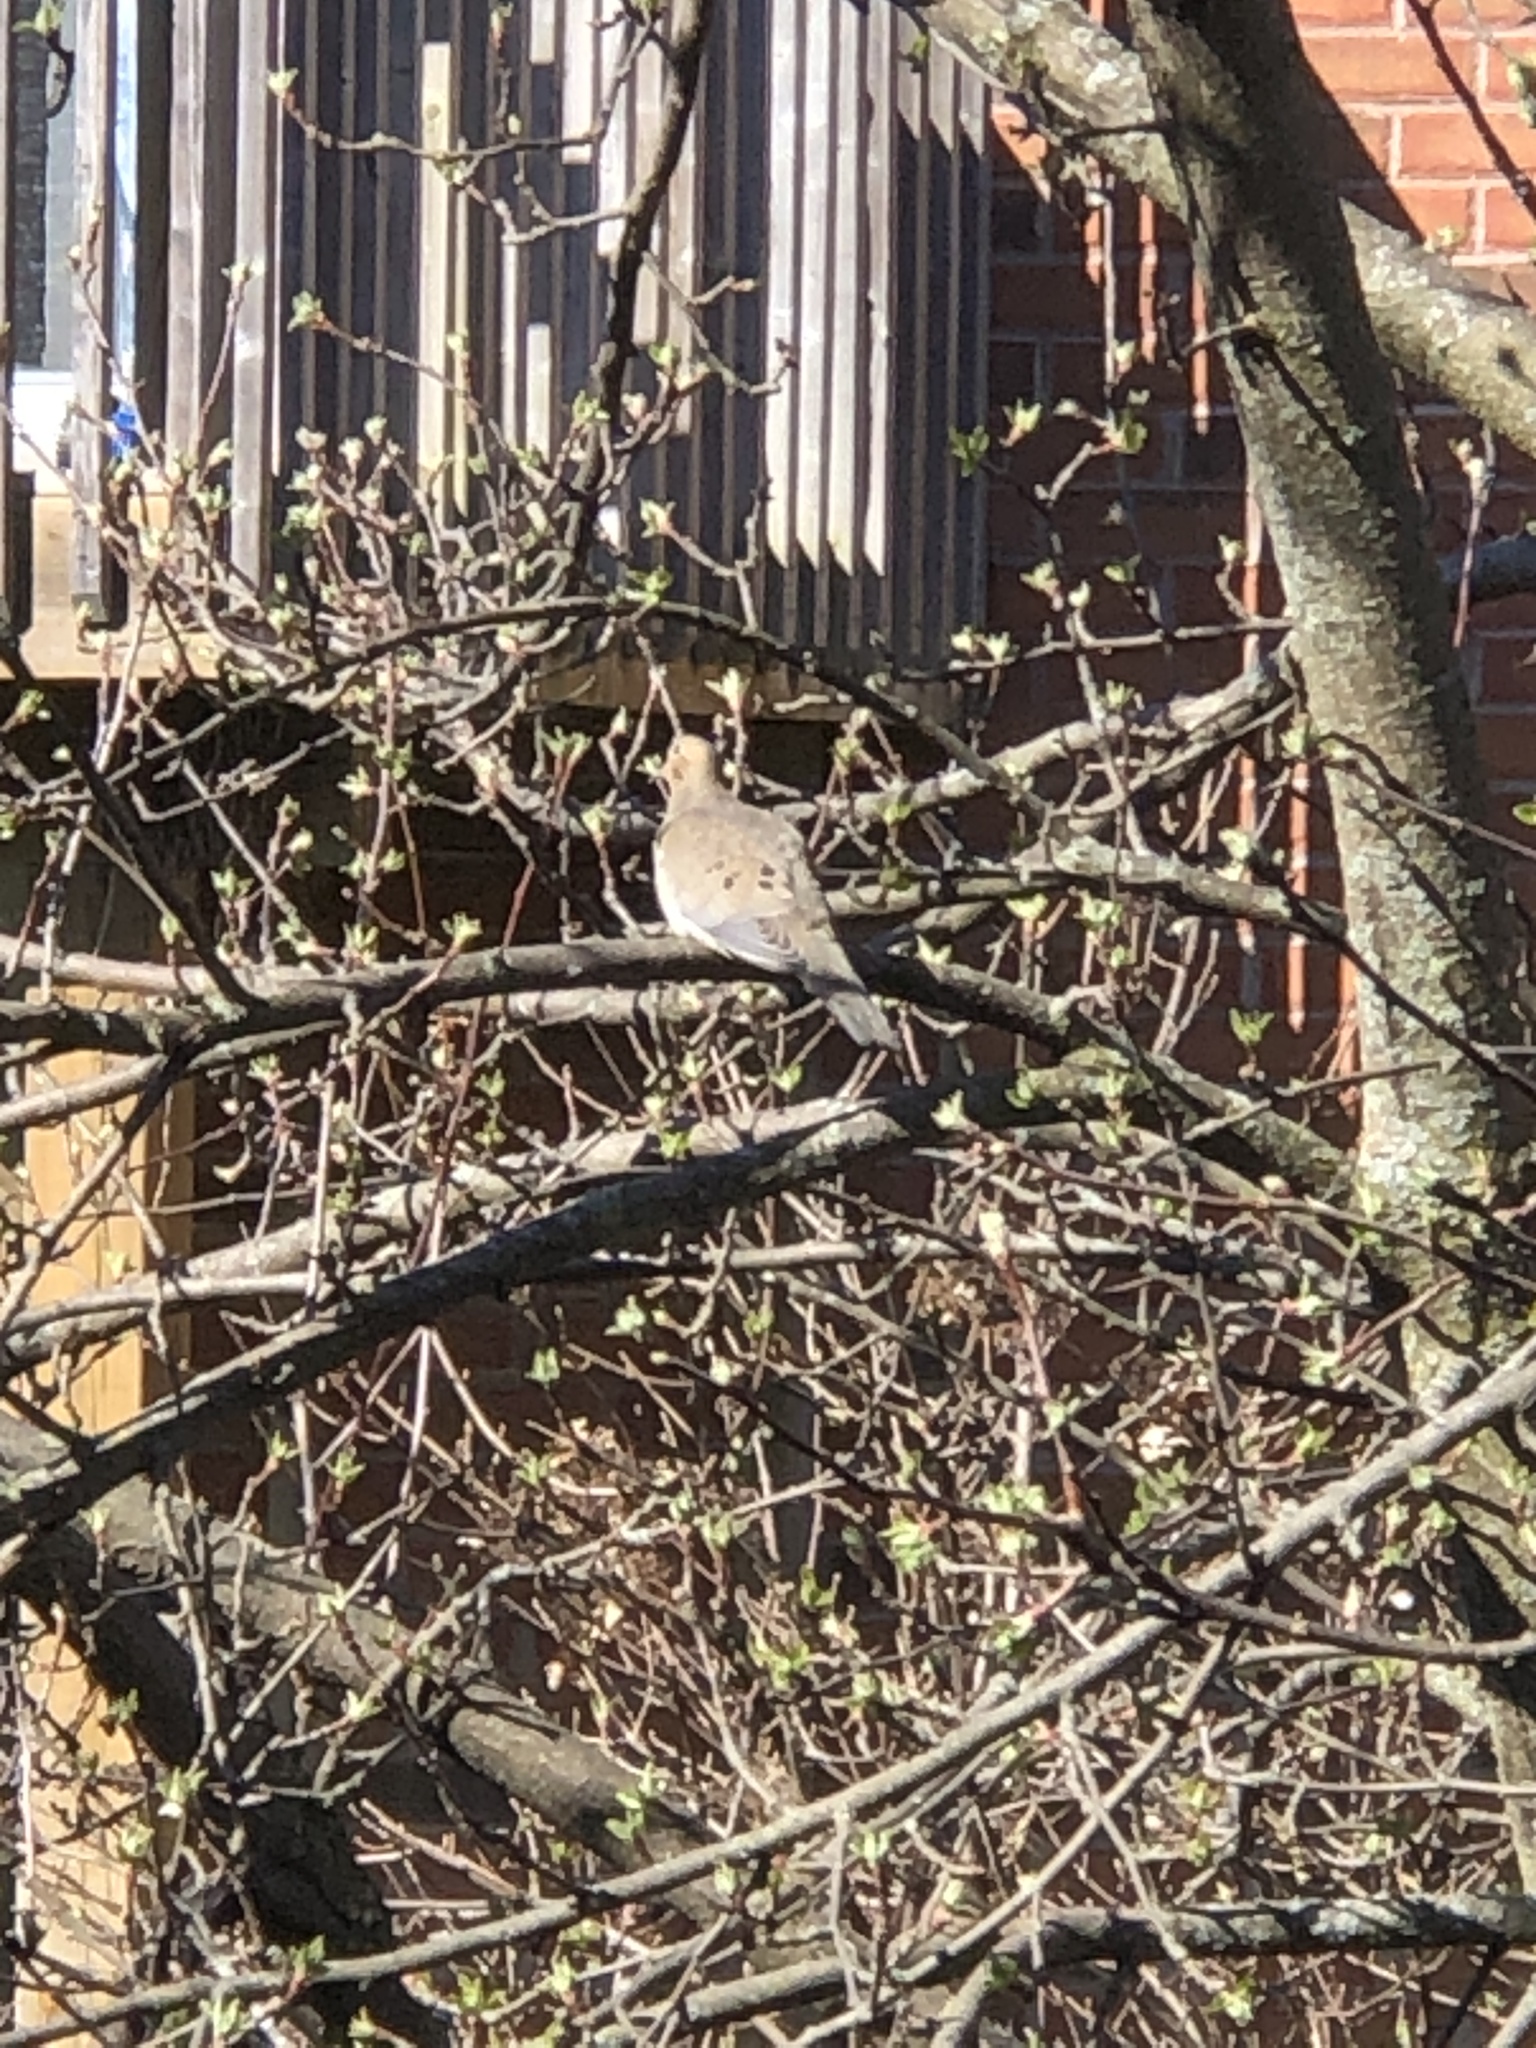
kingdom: Animalia
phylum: Chordata
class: Aves
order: Columbiformes
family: Columbidae
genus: Zenaida
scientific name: Zenaida macroura
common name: Mourning dove
